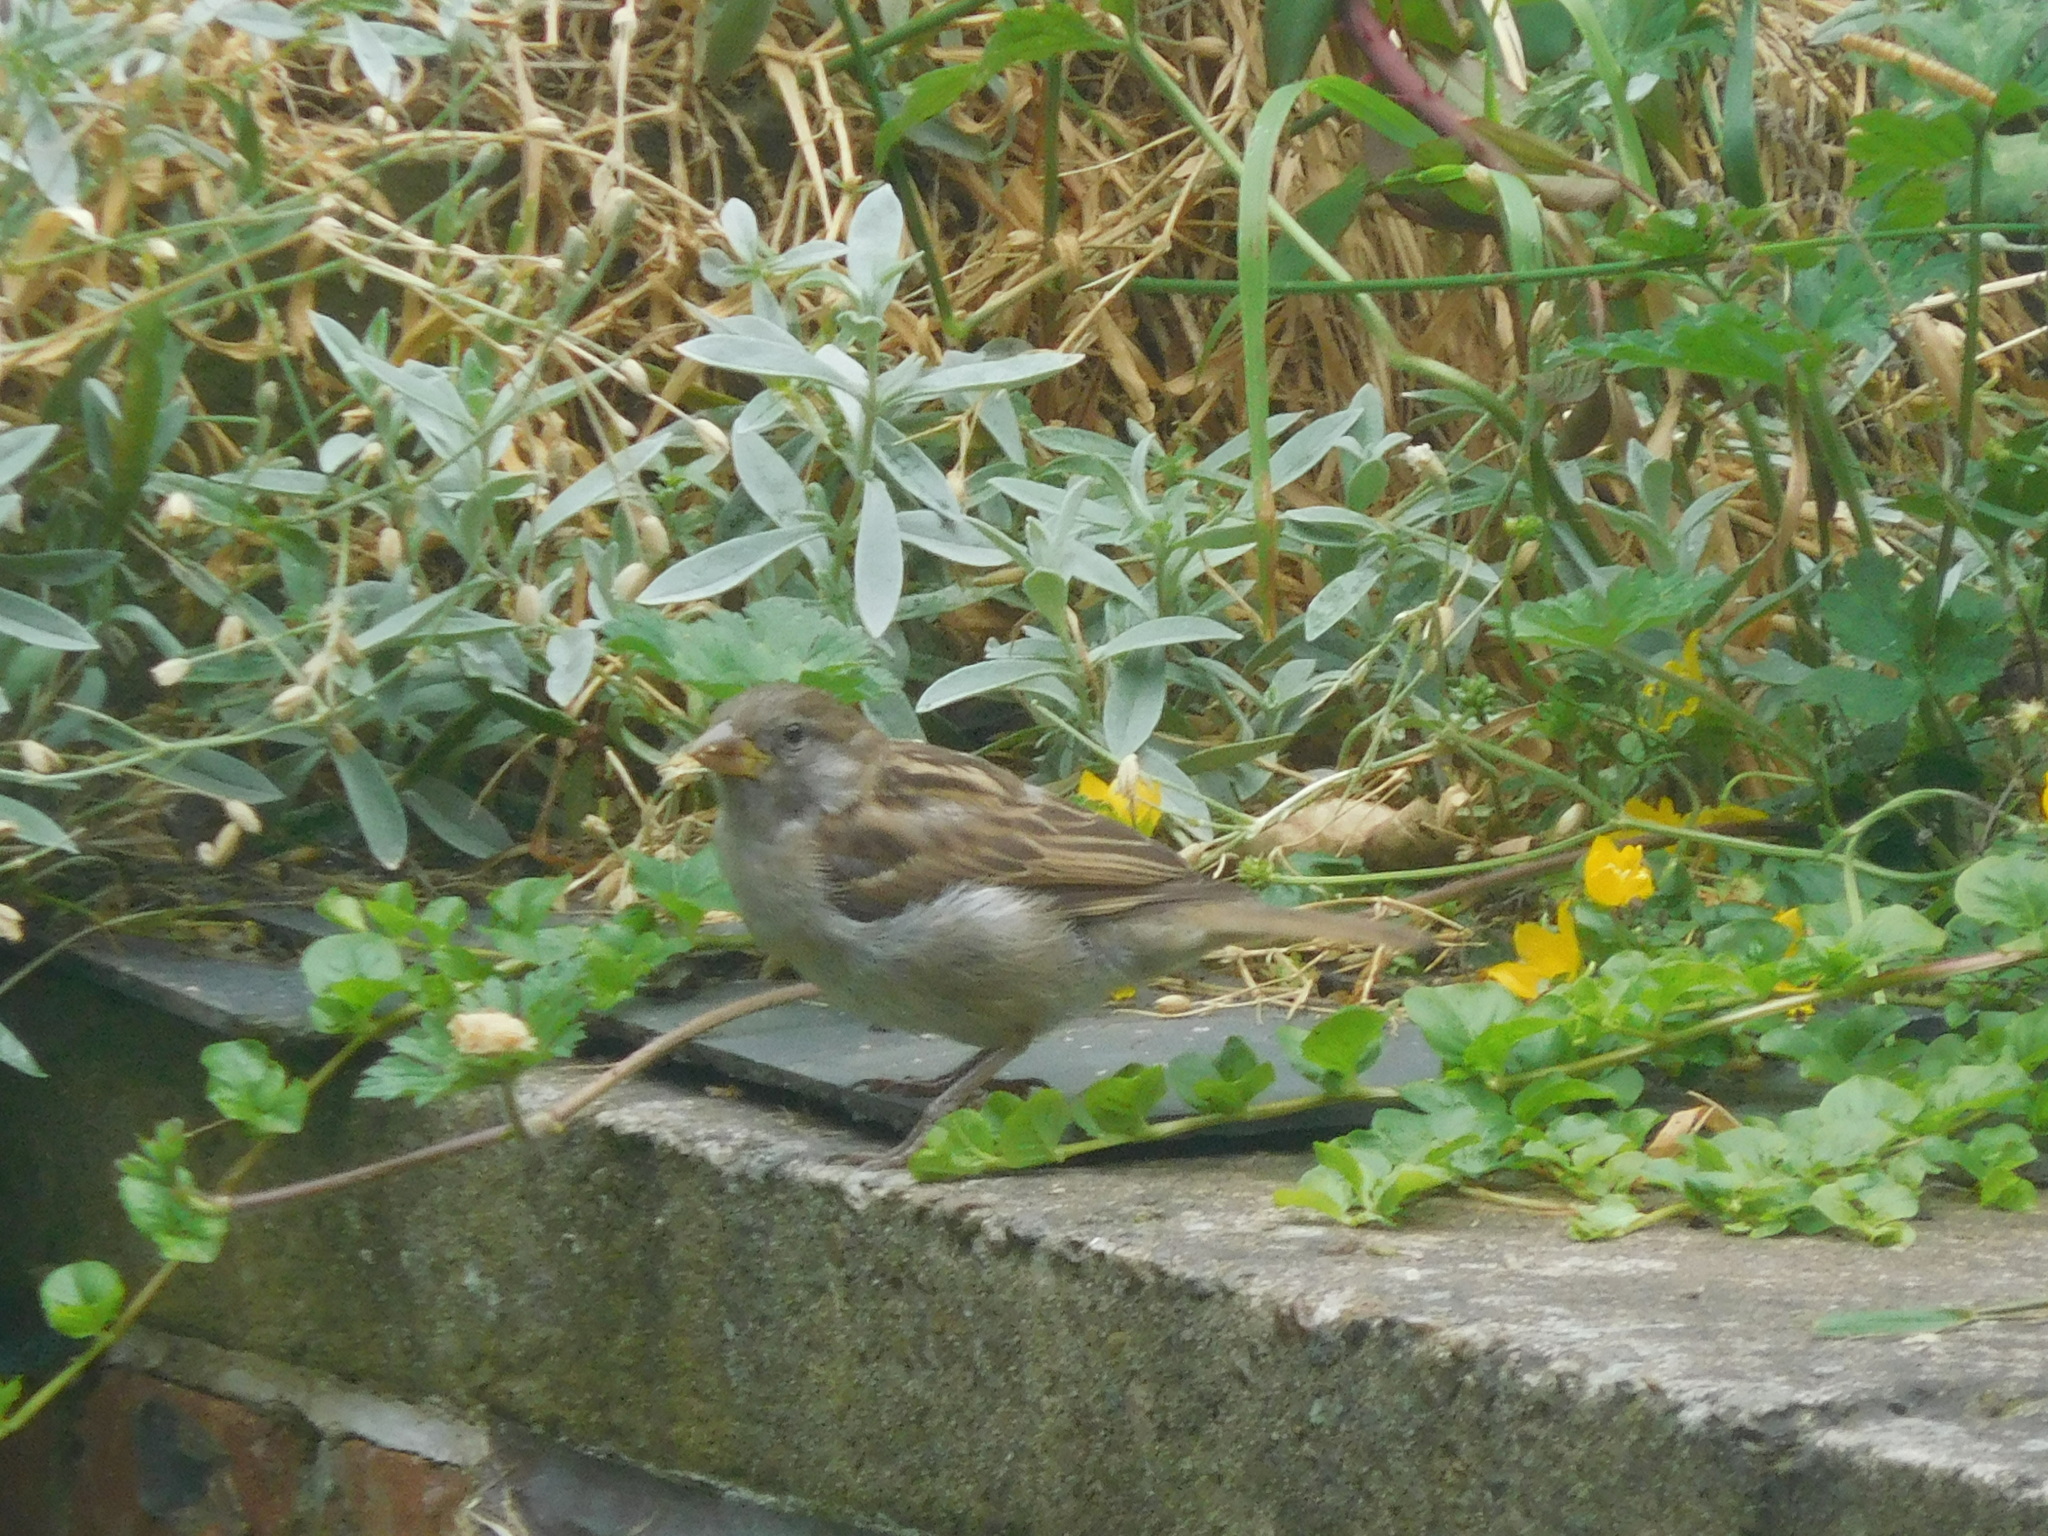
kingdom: Animalia
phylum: Chordata
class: Aves
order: Passeriformes
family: Passeridae
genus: Passer
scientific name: Passer domesticus
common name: House sparrow
